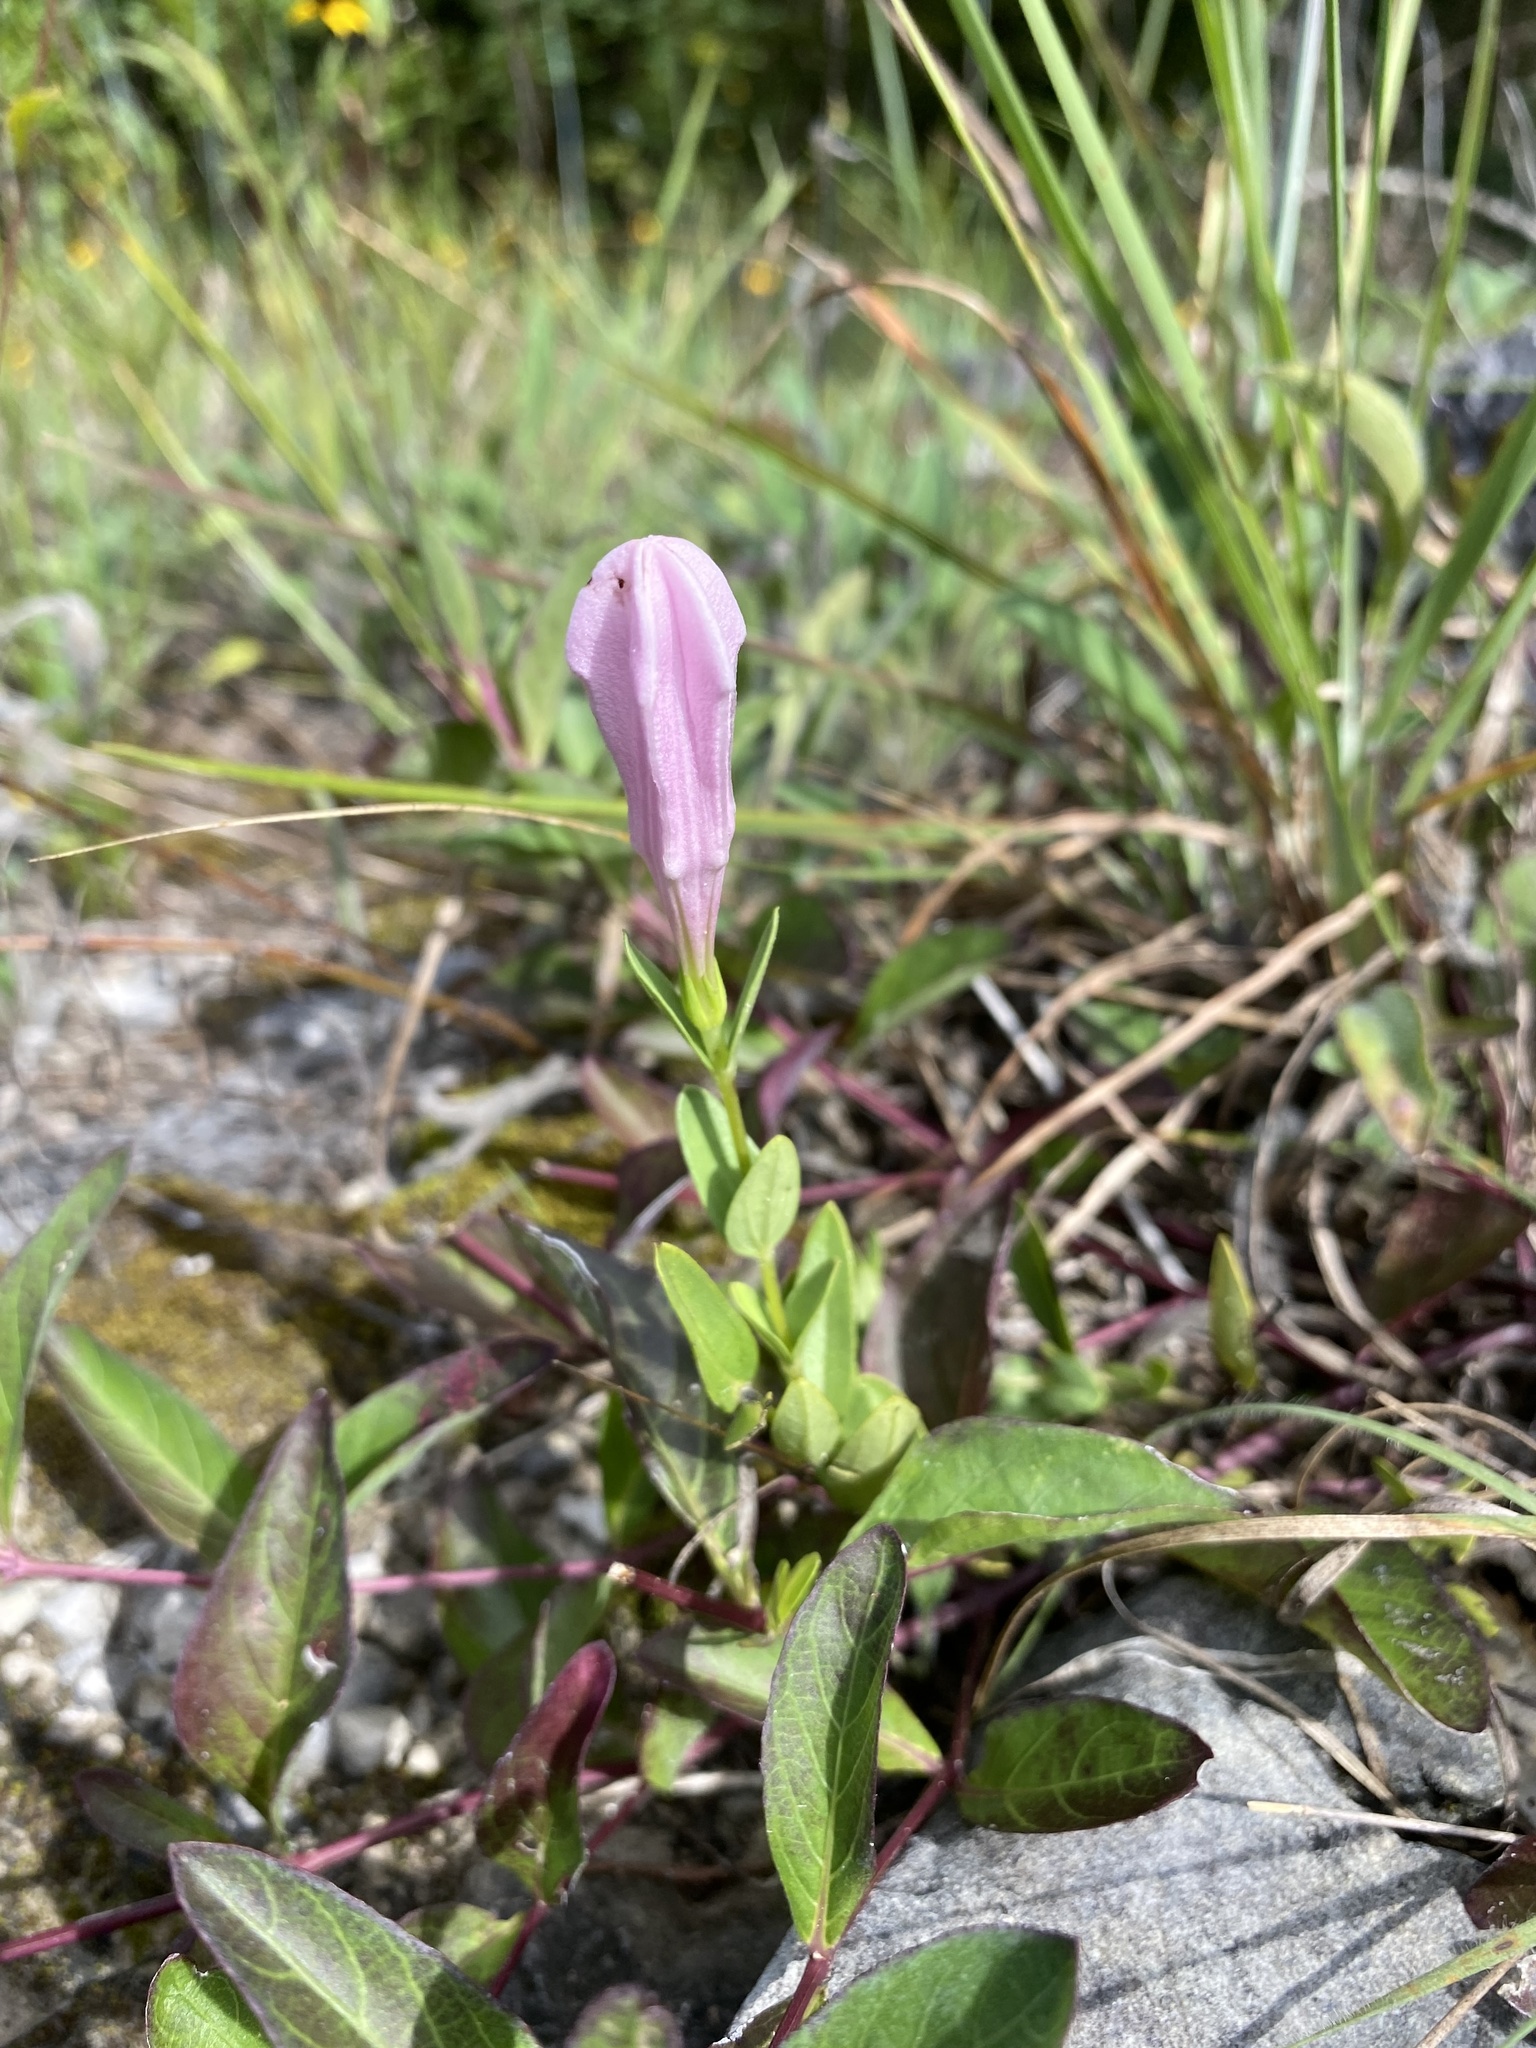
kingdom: Plantae
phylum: Tracheophyta
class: Magnoliopsida
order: Gentianales
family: Loganiaceae
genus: Spigelia
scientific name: Spigelia alabamensis
